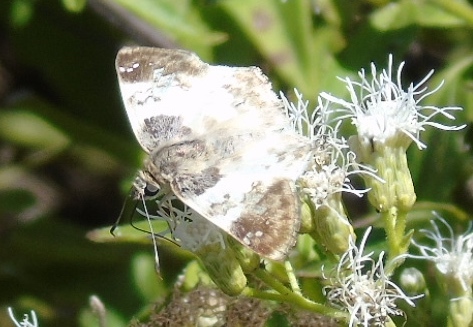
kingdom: Animalia
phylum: Arthropoda
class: Insecta
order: Lepidoptera
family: Hesperiidae
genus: Polyctor
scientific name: Polyctor cleta
